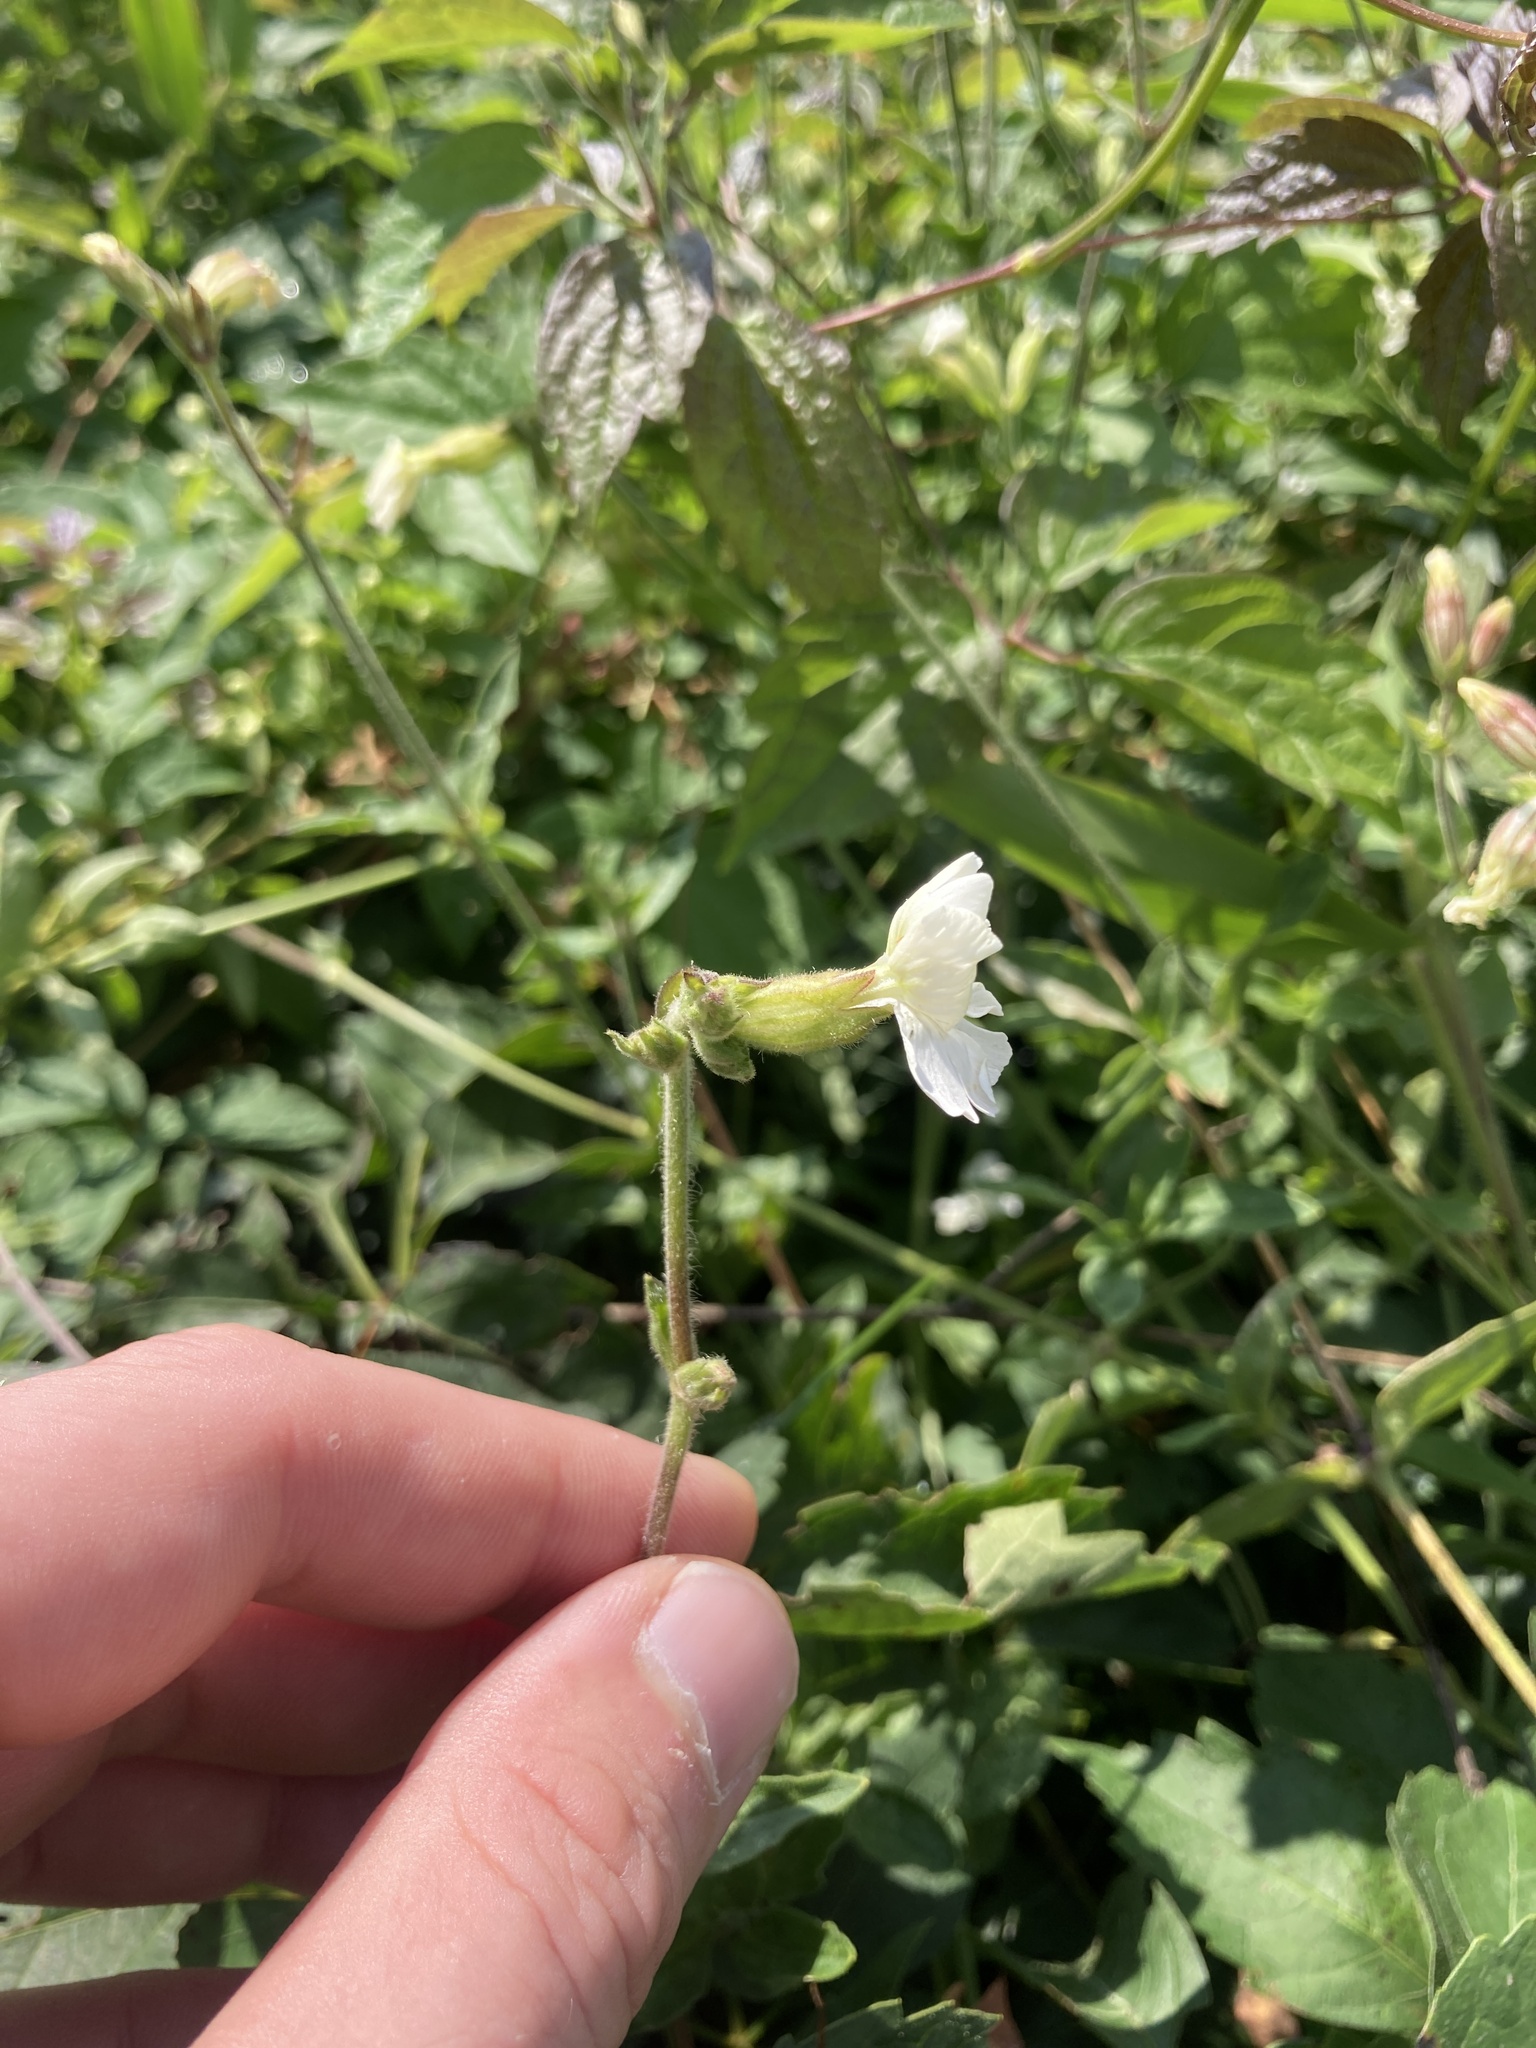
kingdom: Plantae
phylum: Tracheophyta
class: Magnoliopsida
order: Caryophyllales
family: Caryophyllaceae
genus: Silene
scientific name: Silene latifolia
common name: White campion
